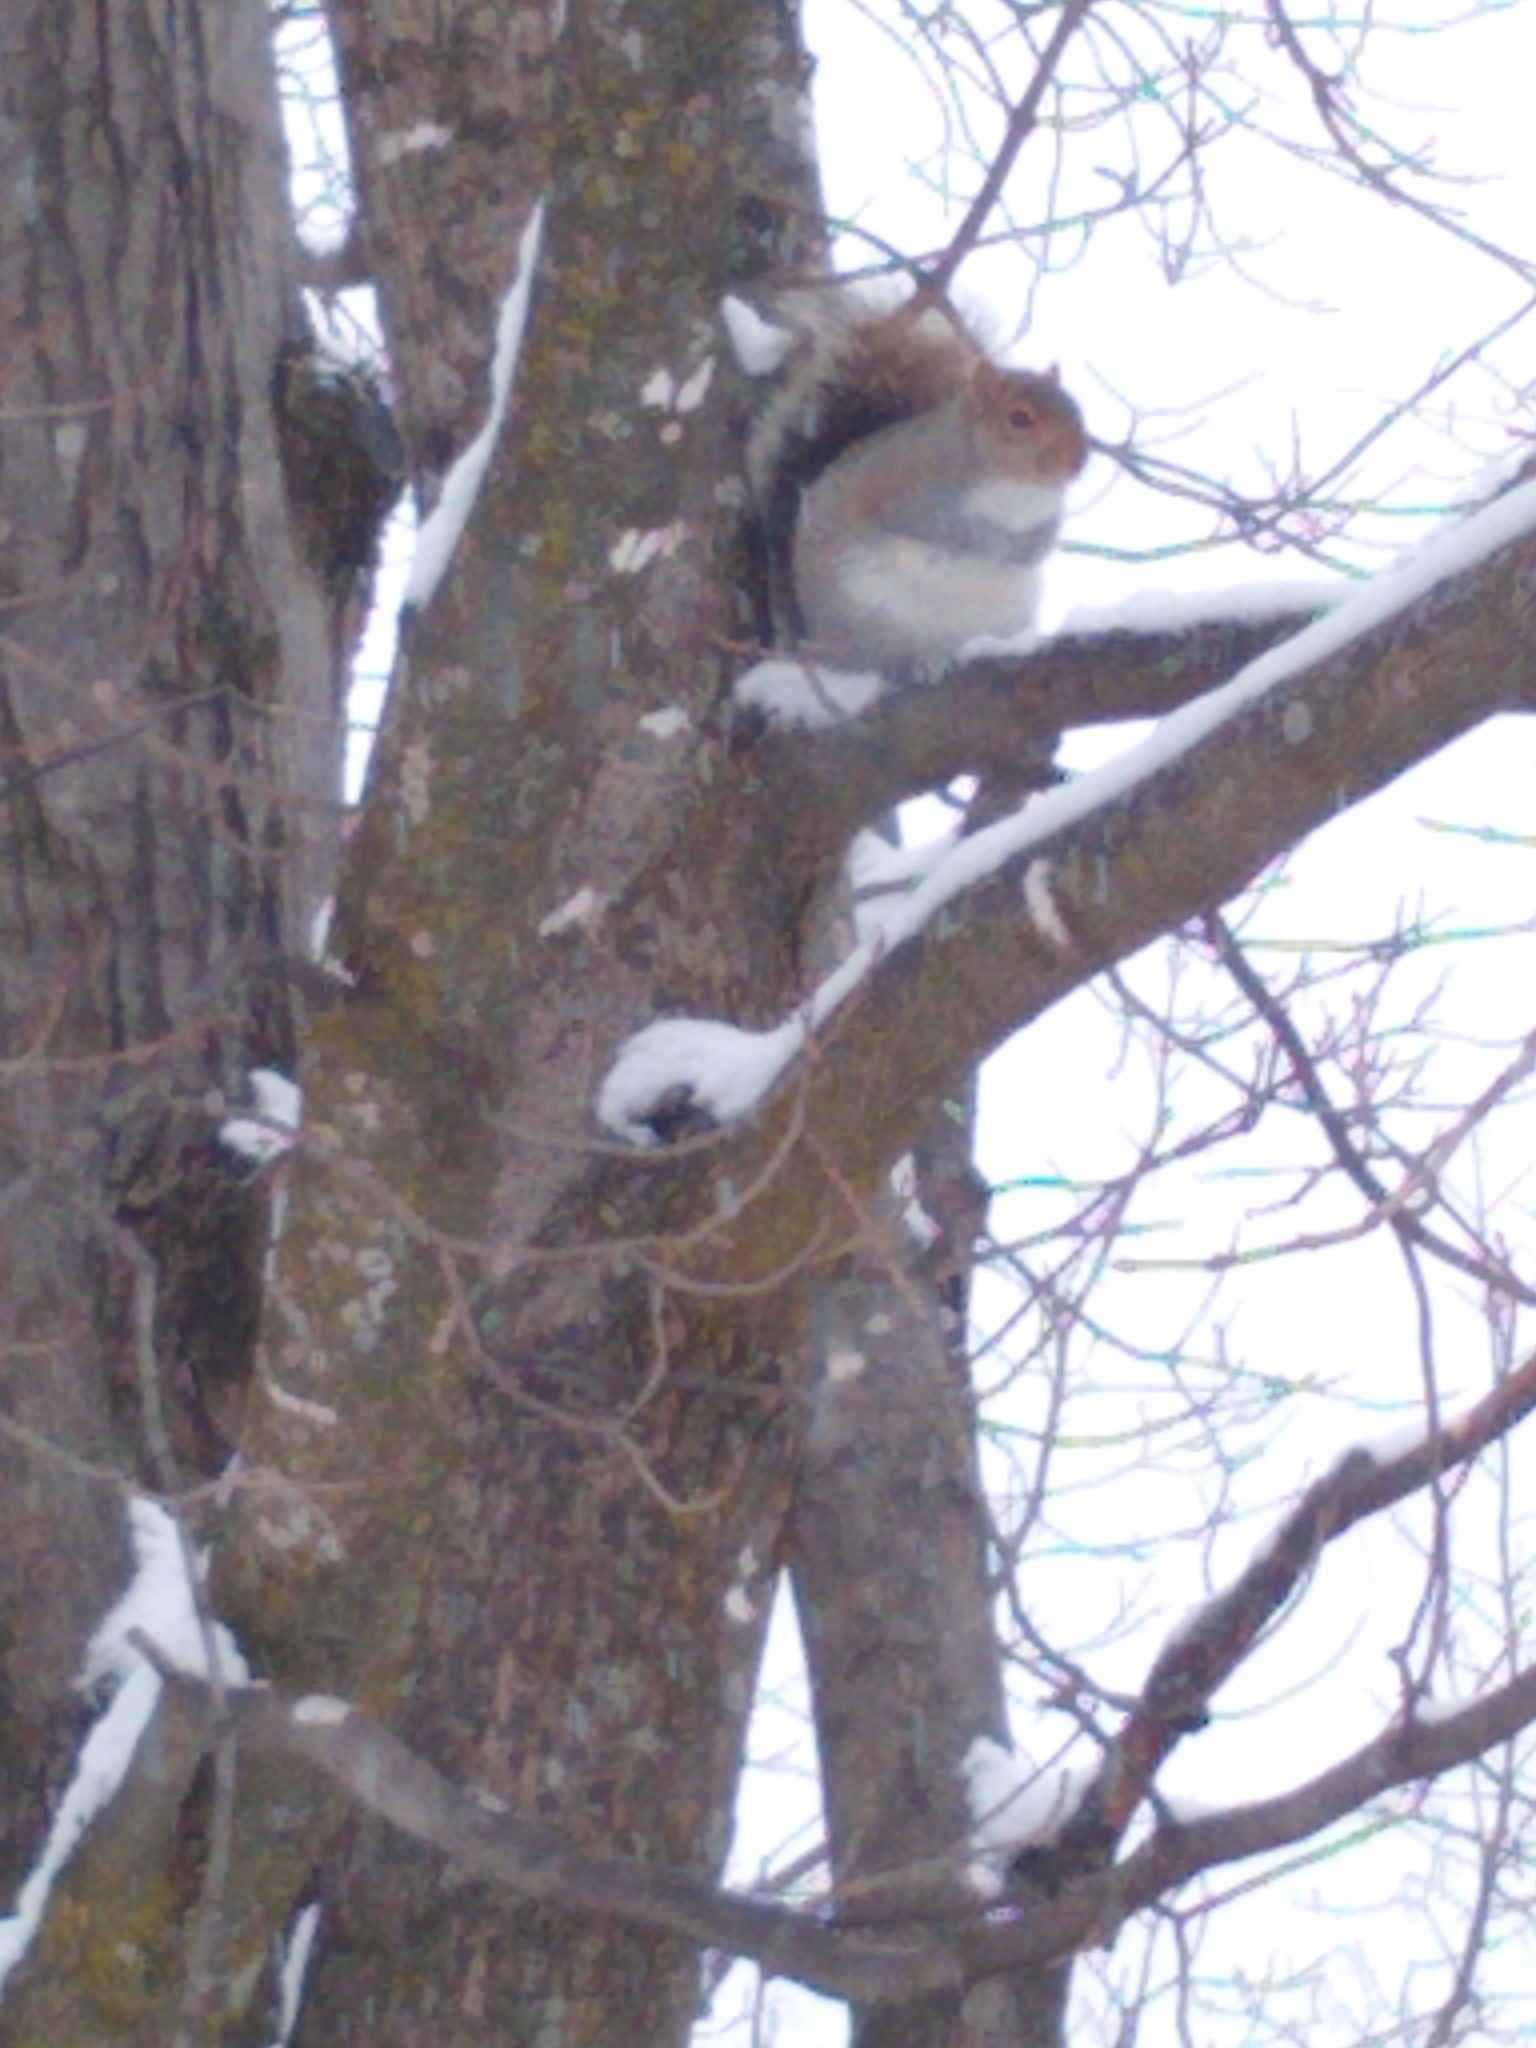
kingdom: Animalia
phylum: Chordata
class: Mammalia
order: Rodentia
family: Sciuridae
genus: Sciurus
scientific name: Sciurus carolinensis
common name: Eastern gray squirrel
